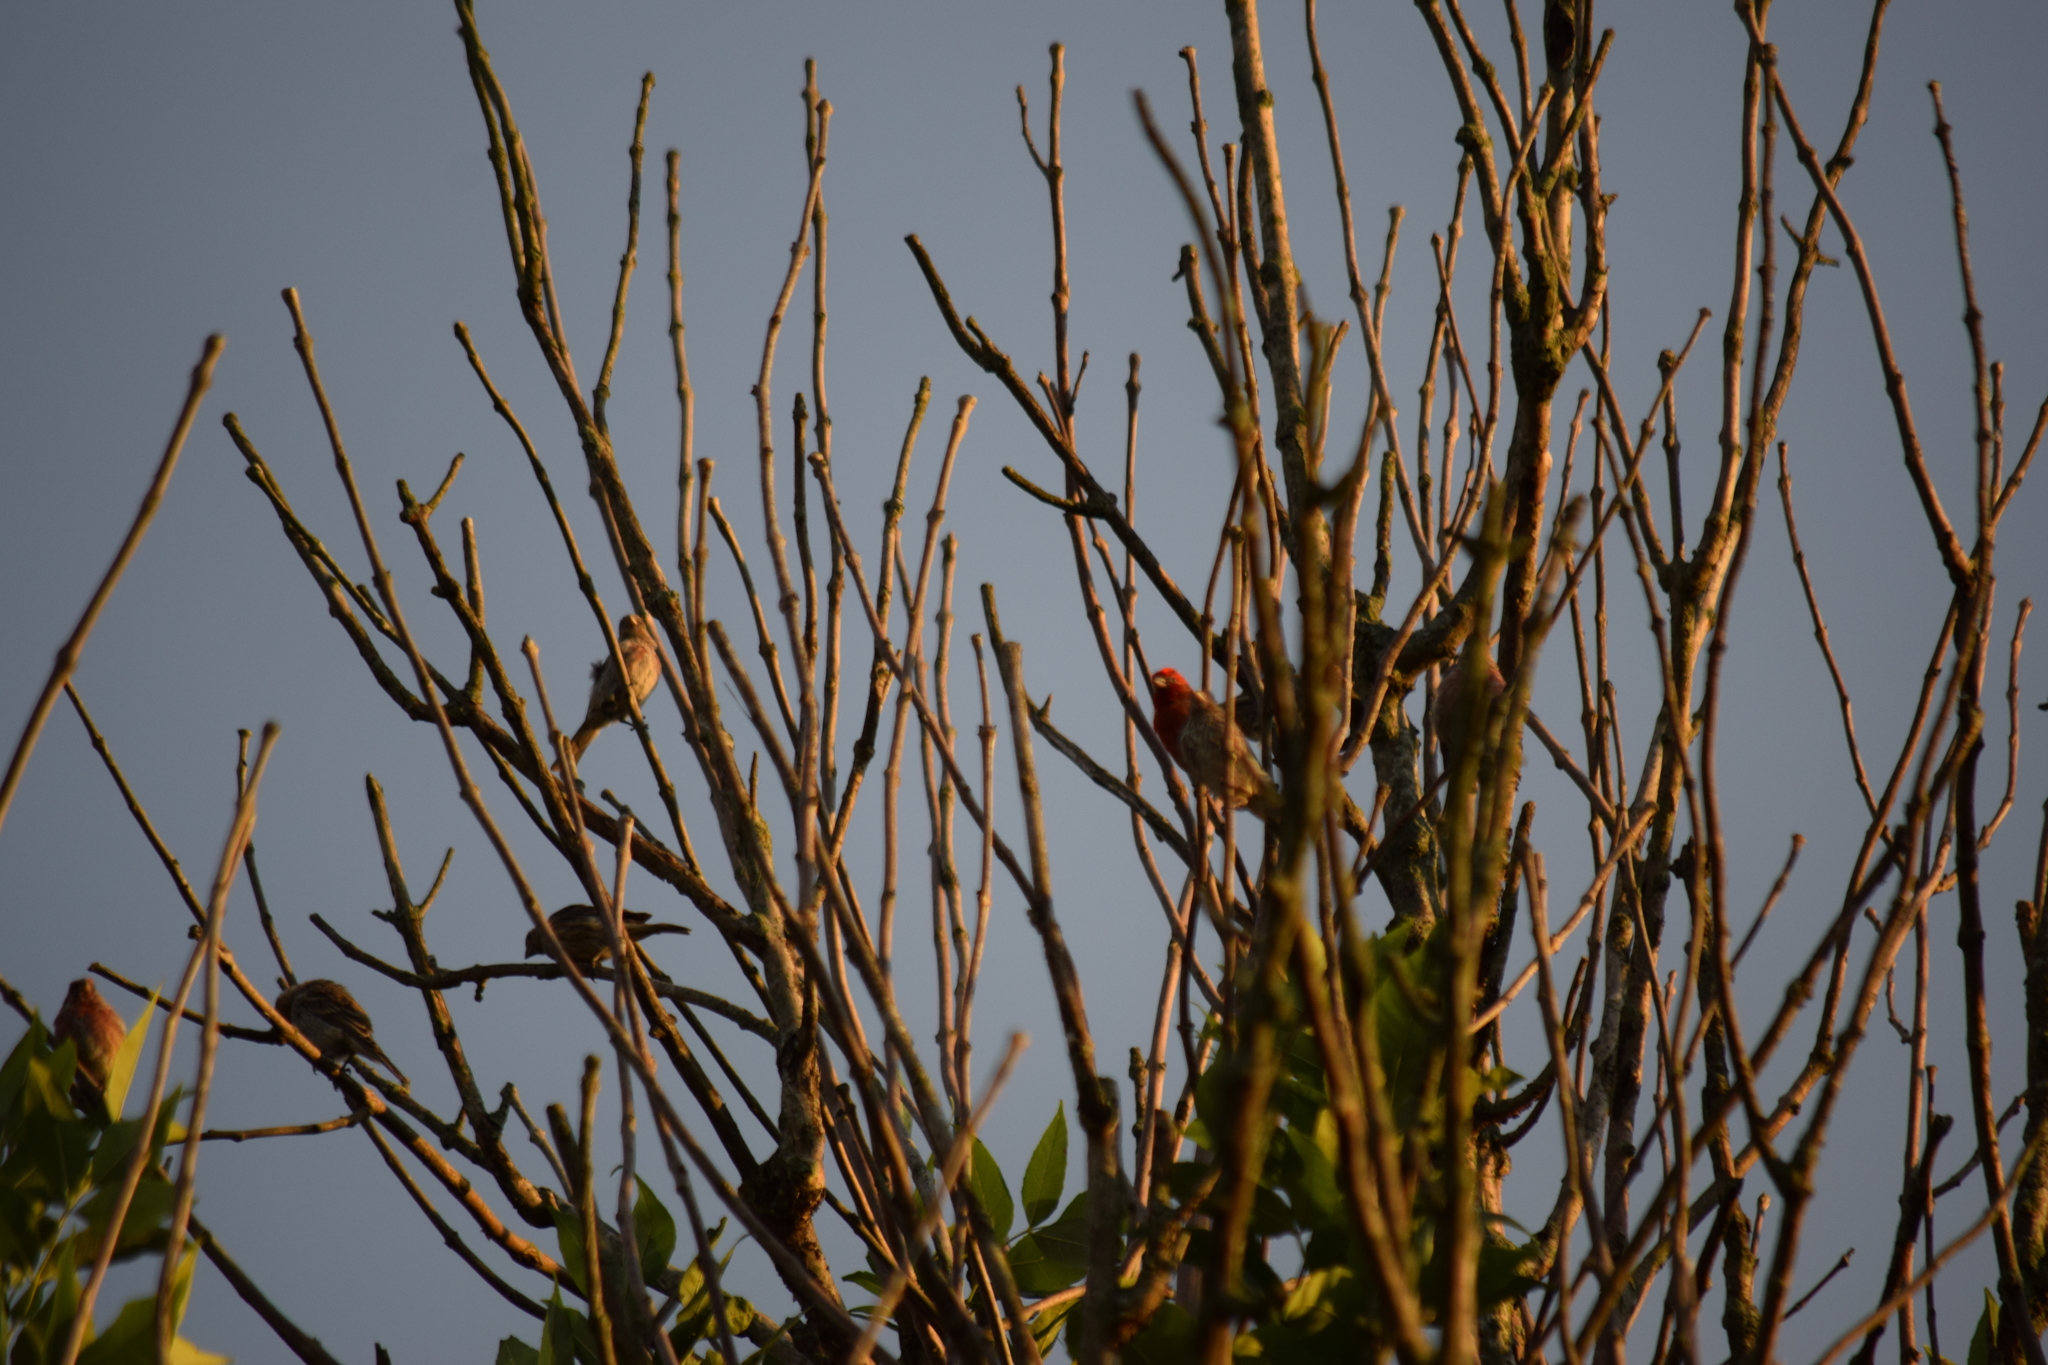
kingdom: Animalia
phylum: Chordata
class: Aves
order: Passeriformes
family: Fringillidae
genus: Haemorhous
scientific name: Haemorhous mexicanus
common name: House finch
